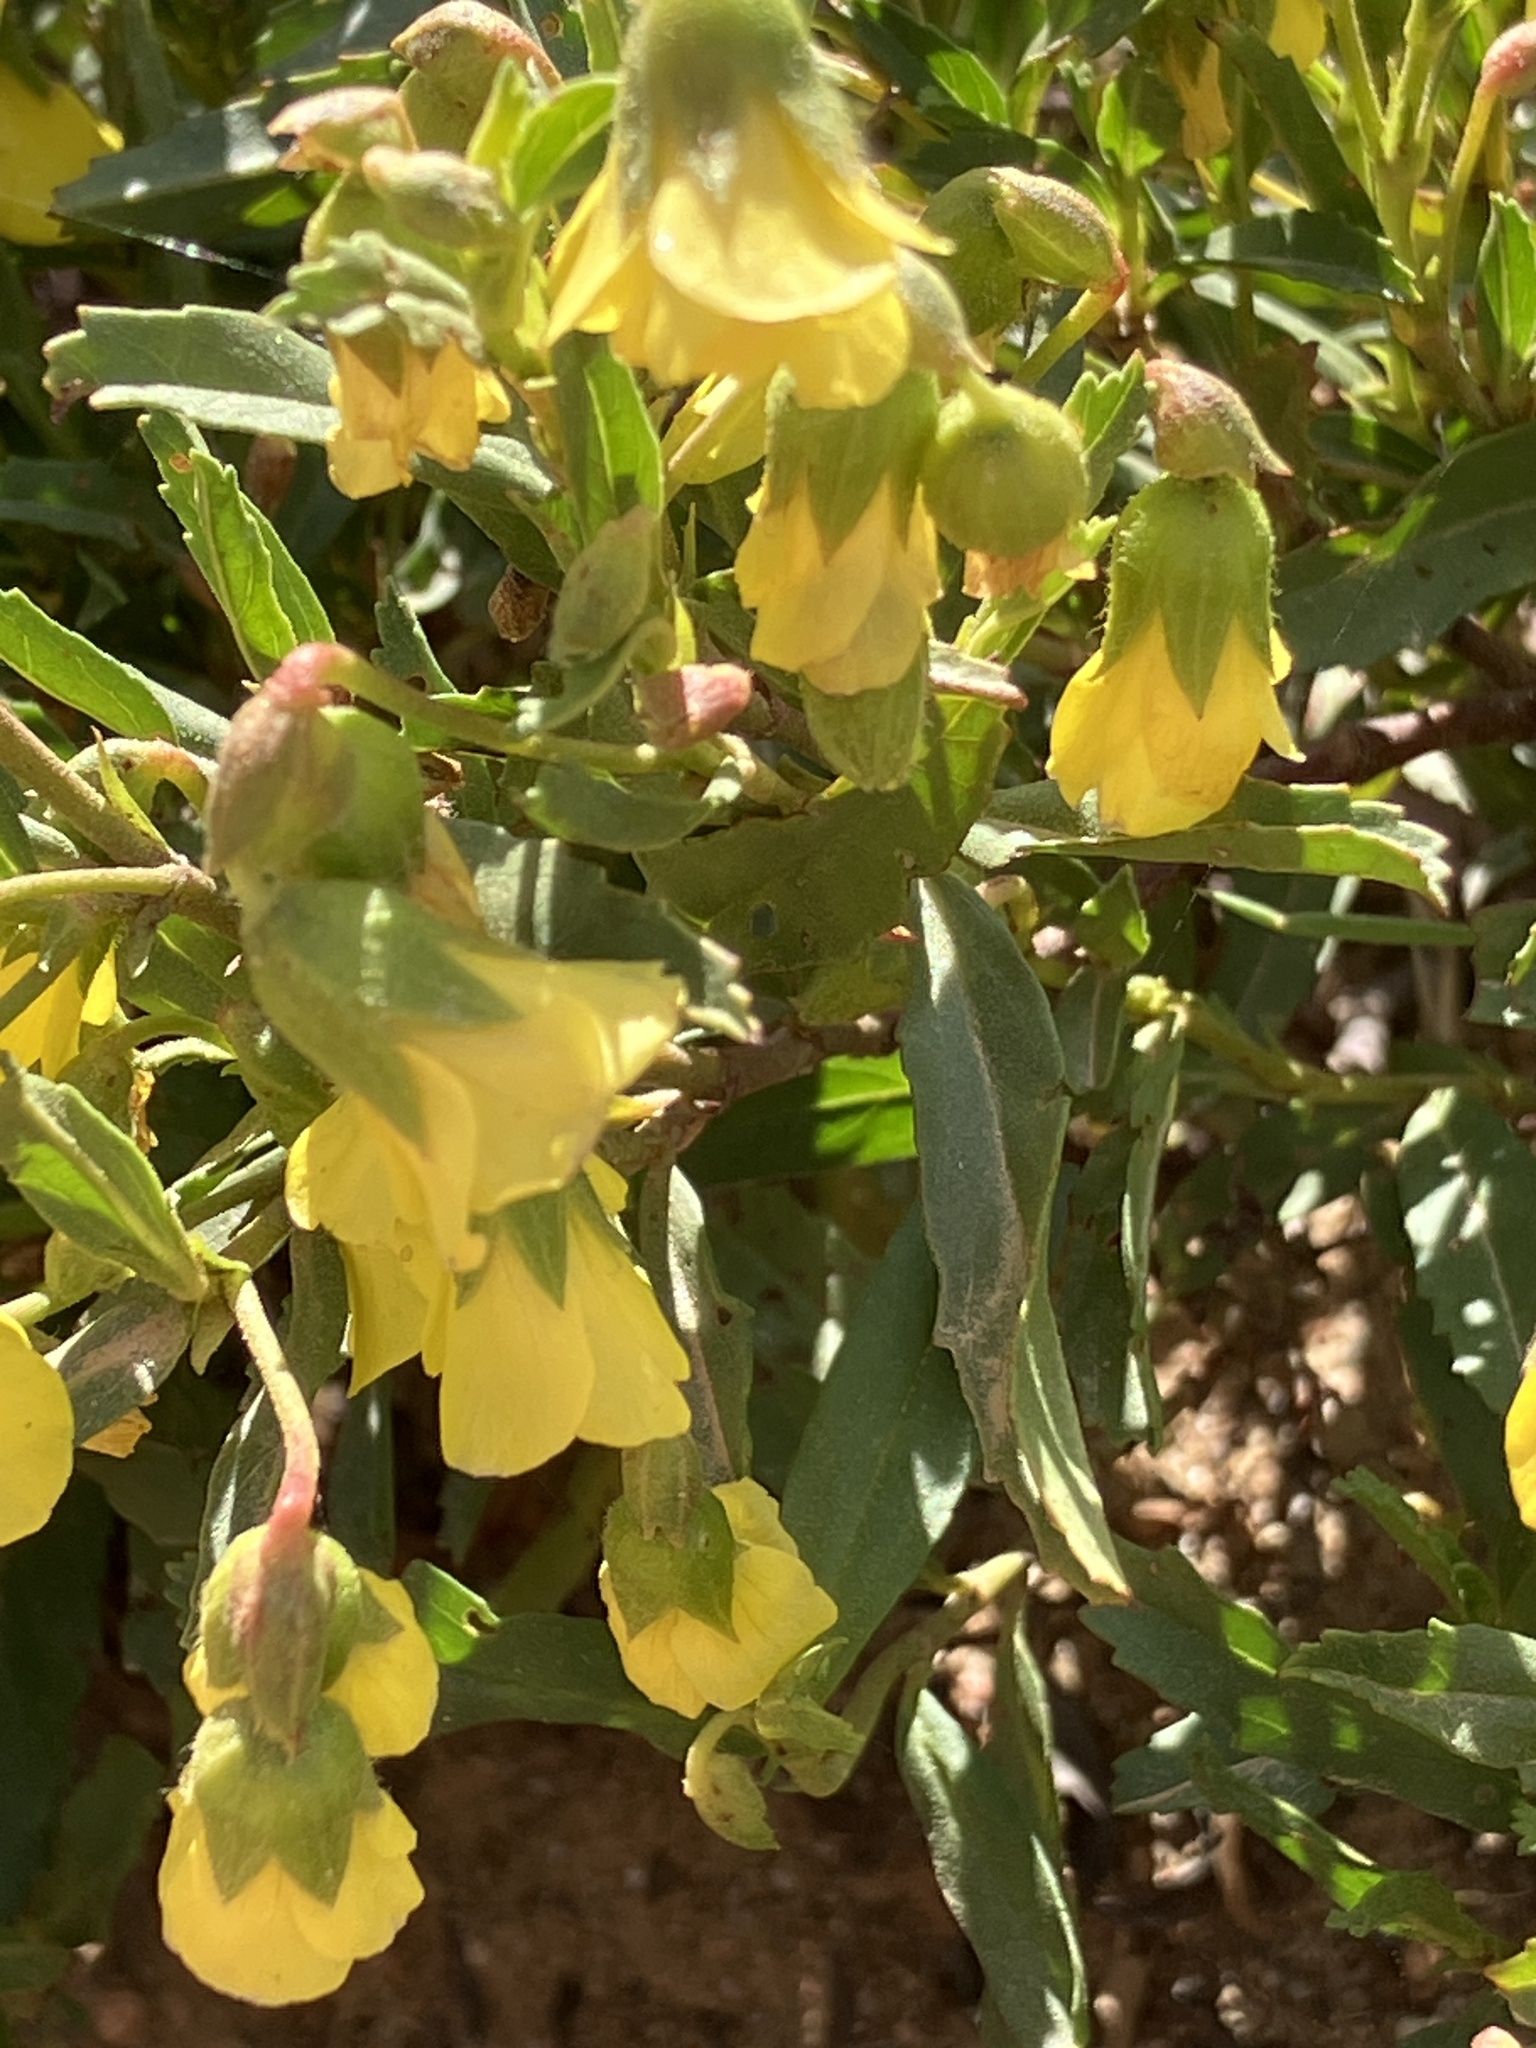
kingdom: Plantae
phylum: Tracheophyta
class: Magnoliopsida
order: Malvales
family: Malvaceae
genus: Hermannia
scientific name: Hermannia saccifera
